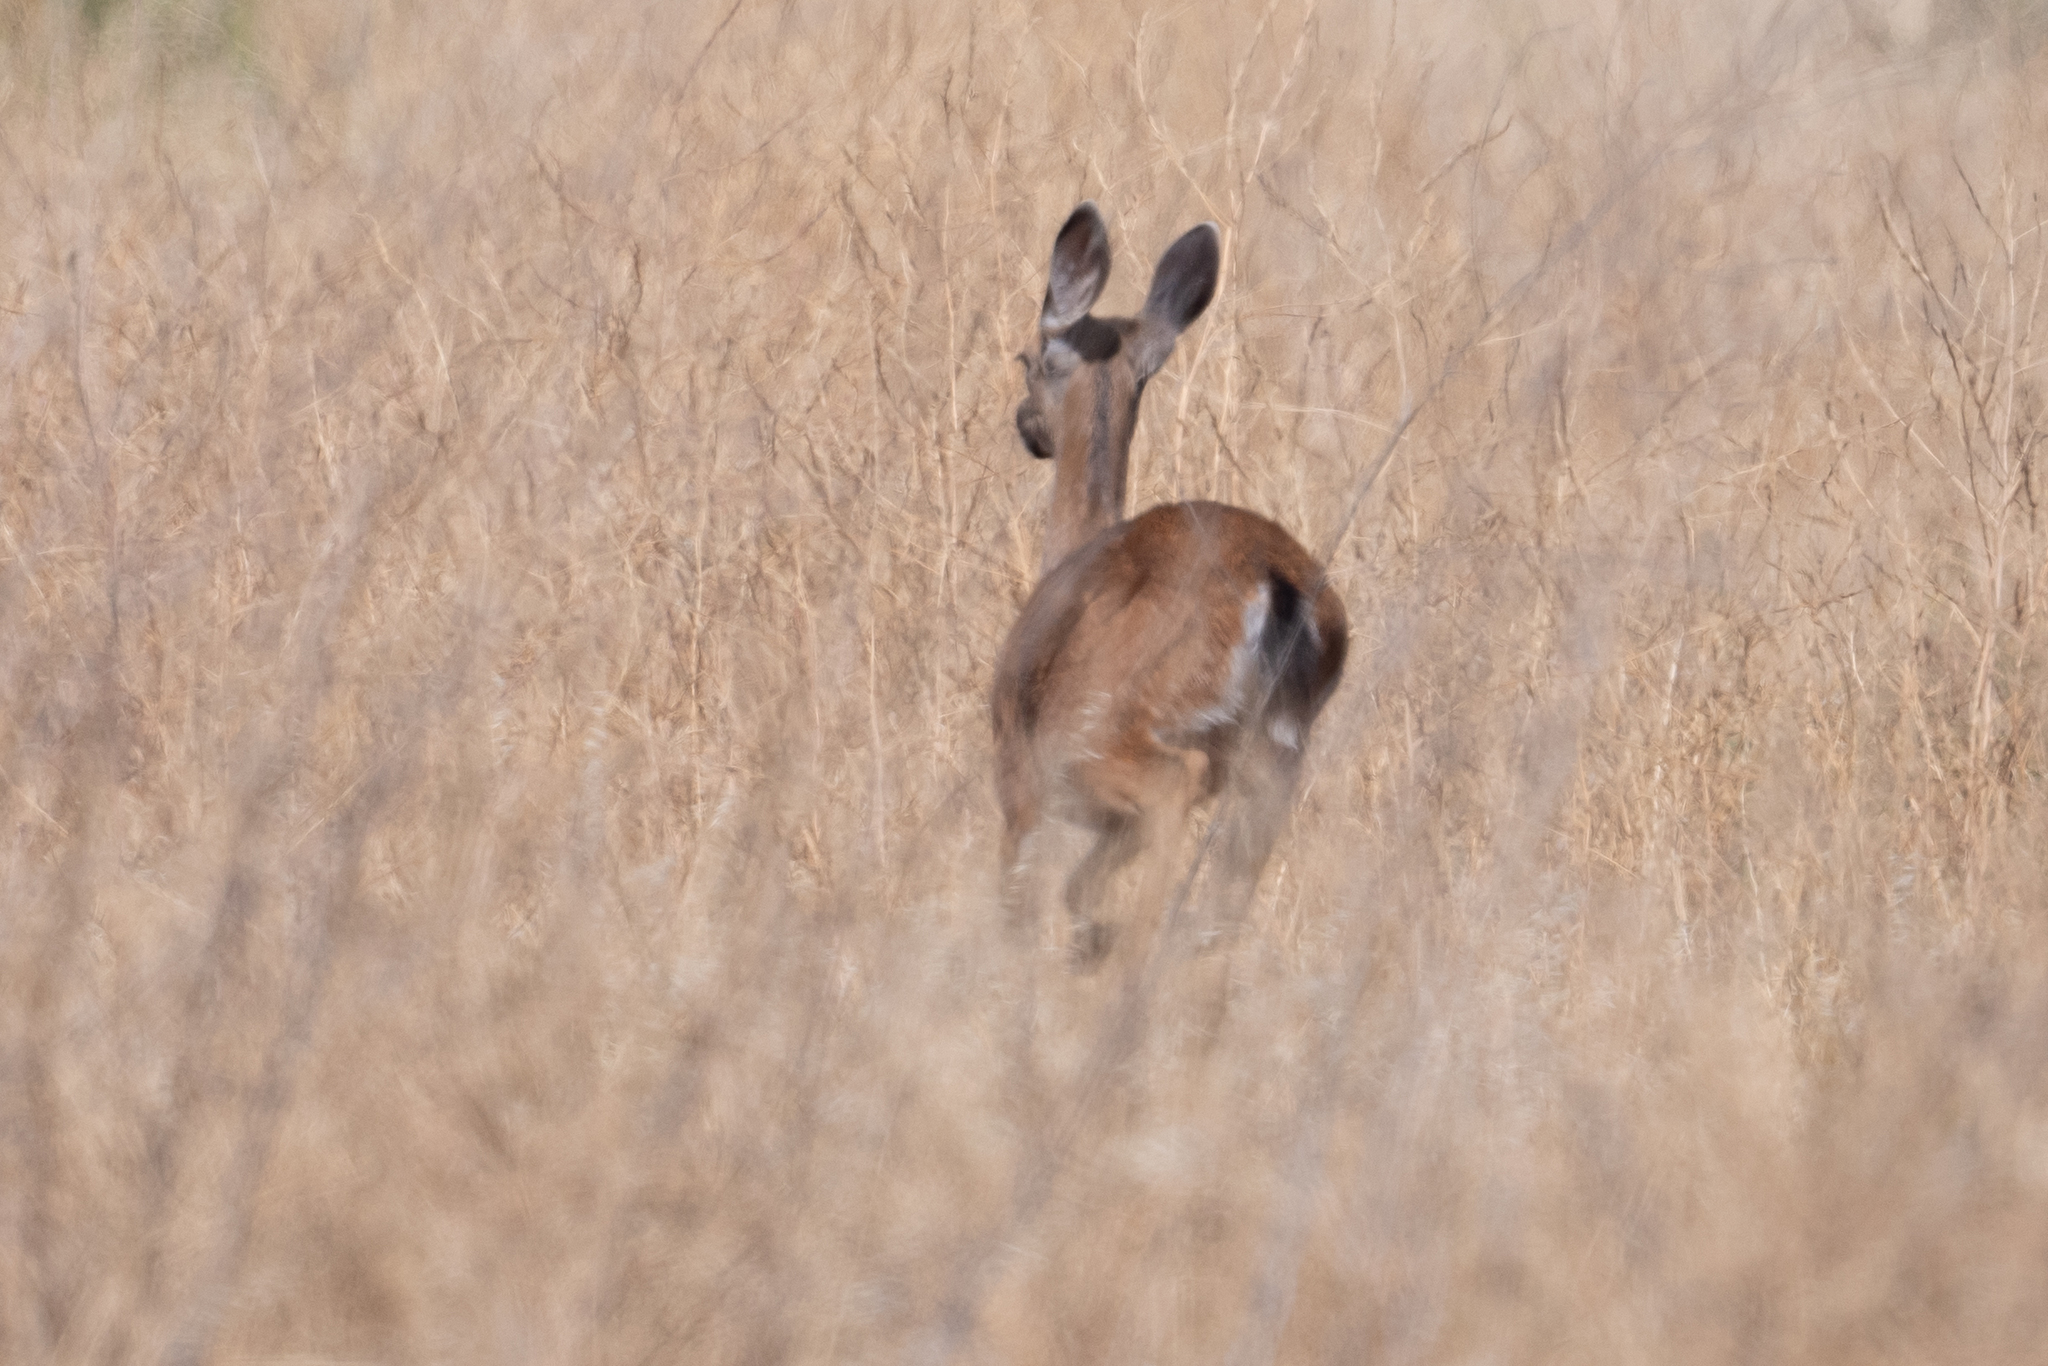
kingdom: Animalia
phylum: Chordata
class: Mammalia
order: Artiodactyla
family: Cervidae
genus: Odocoileus
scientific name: Odocoileus hemionus
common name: Mule deer
